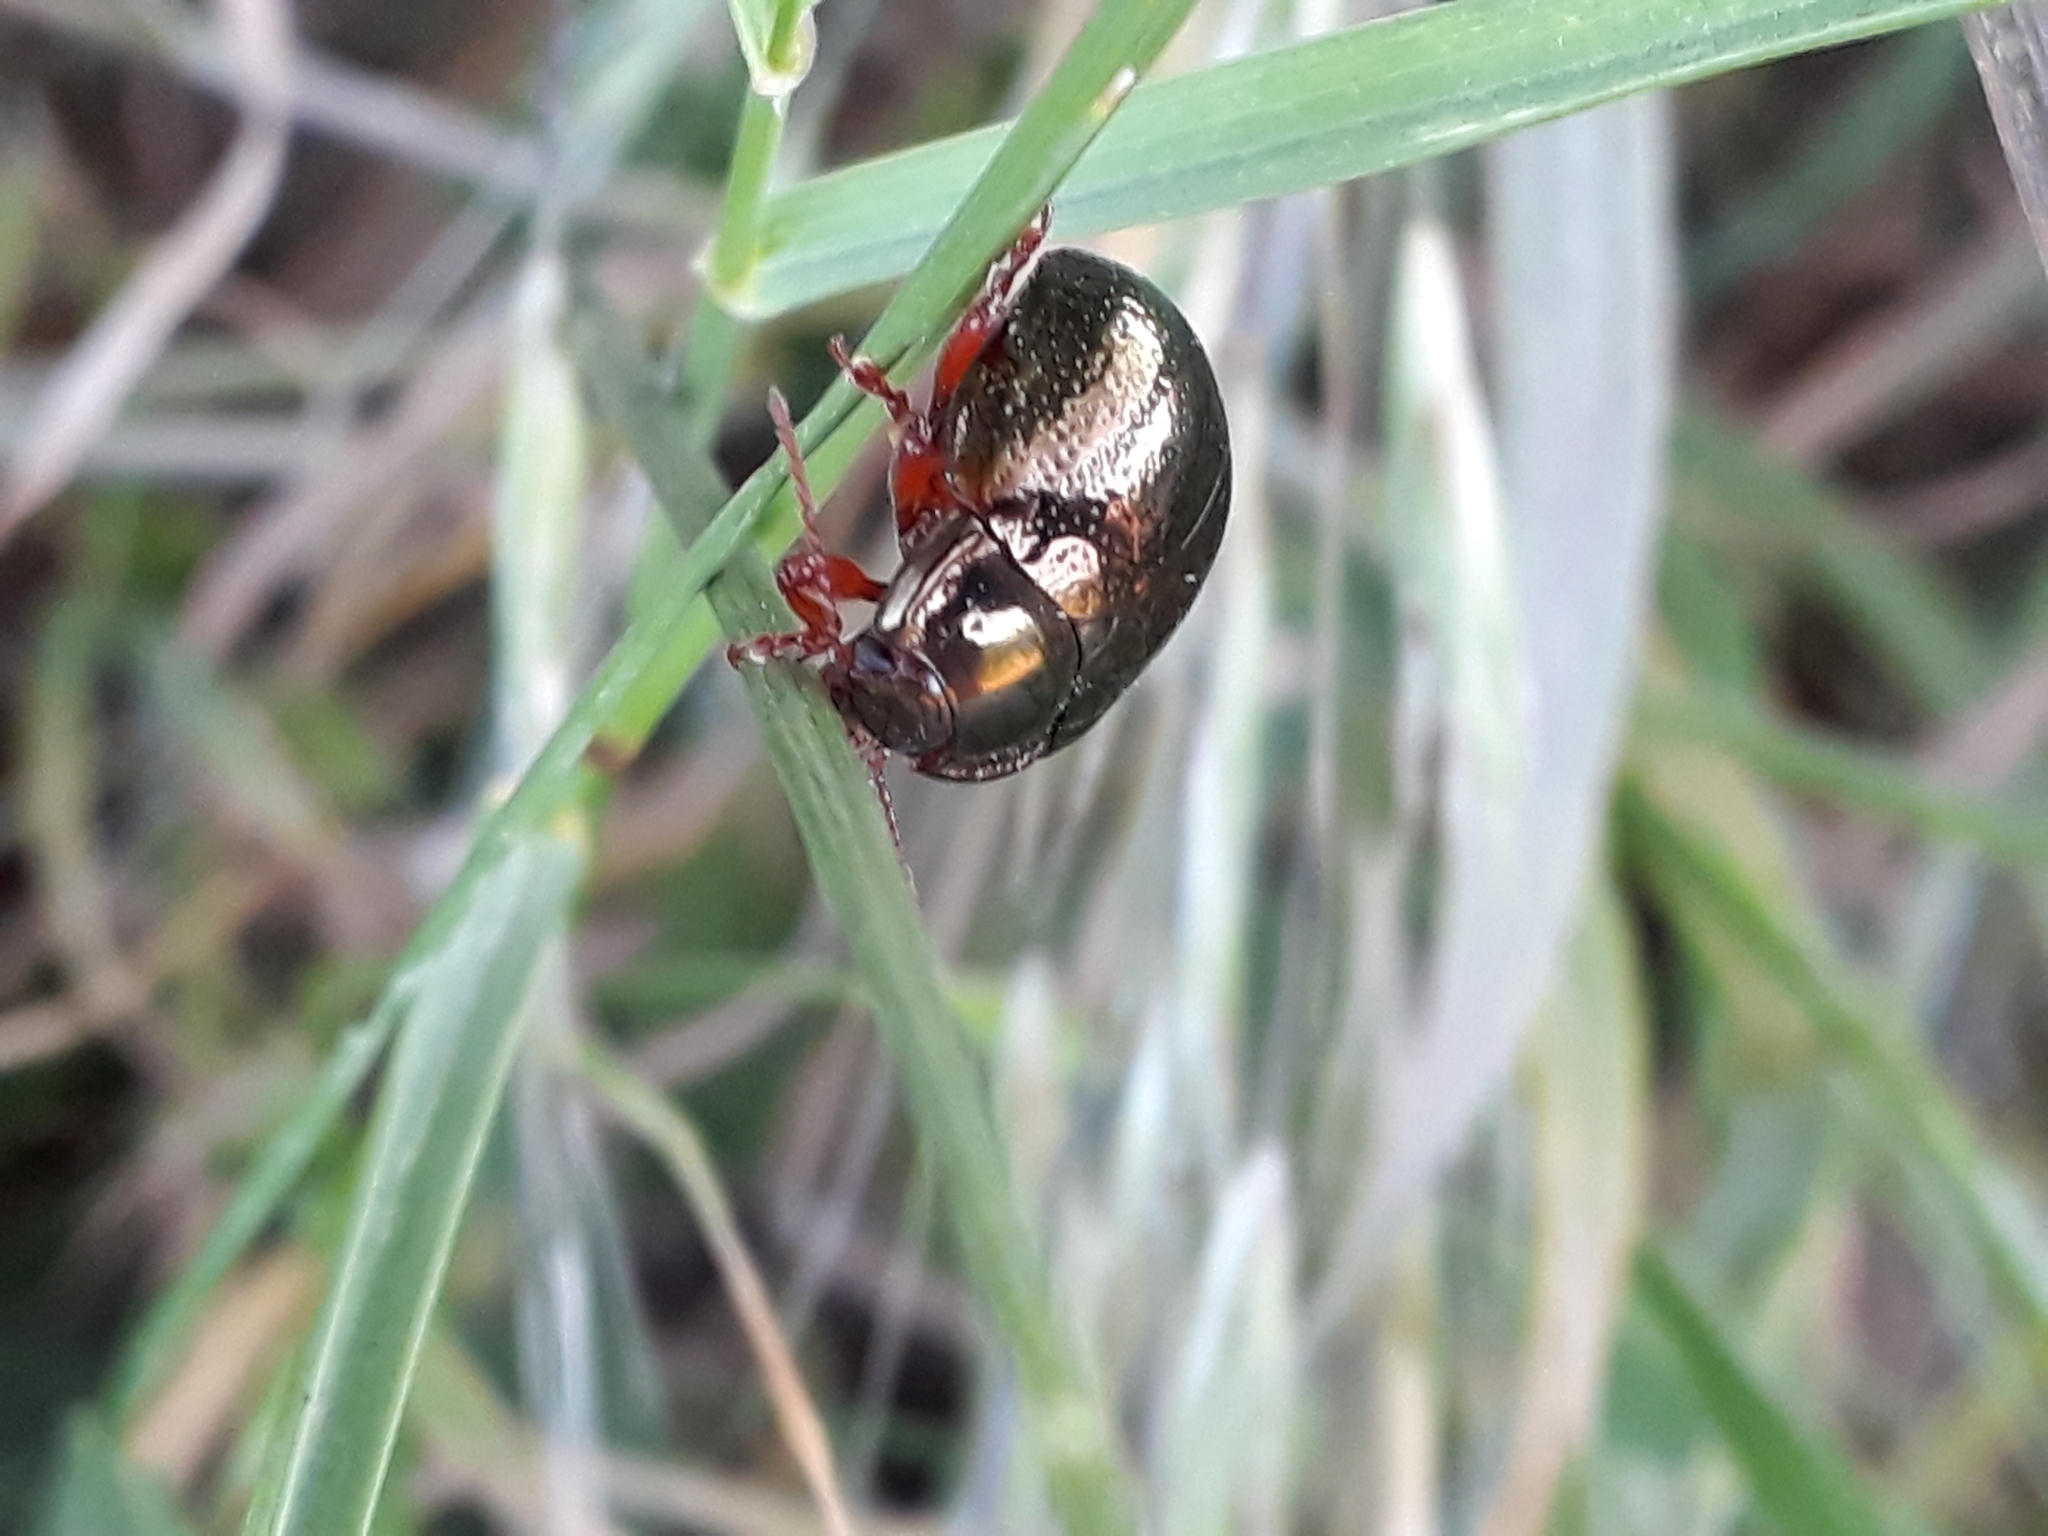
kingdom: Animalia
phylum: Arthropoda
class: Insecta
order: Coleoptera
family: Chrysomelidae
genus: Chrysolina
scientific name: Chrysolina bankii
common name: Leaf beetle
